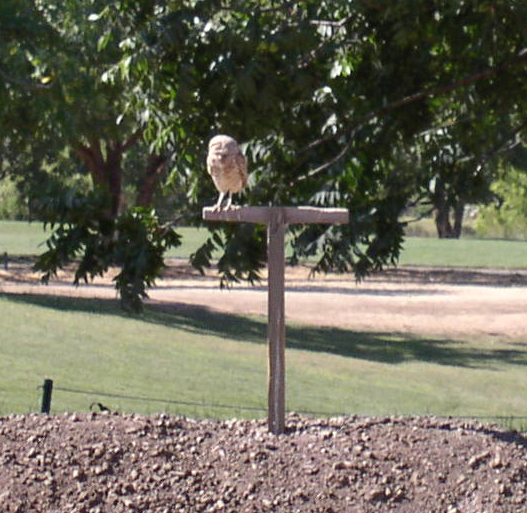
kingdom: Animalia
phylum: Chordata
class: Aves
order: Strigiformes
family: Strigidae
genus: Athene
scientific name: Athene cunicularia
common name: Burrowing owl
